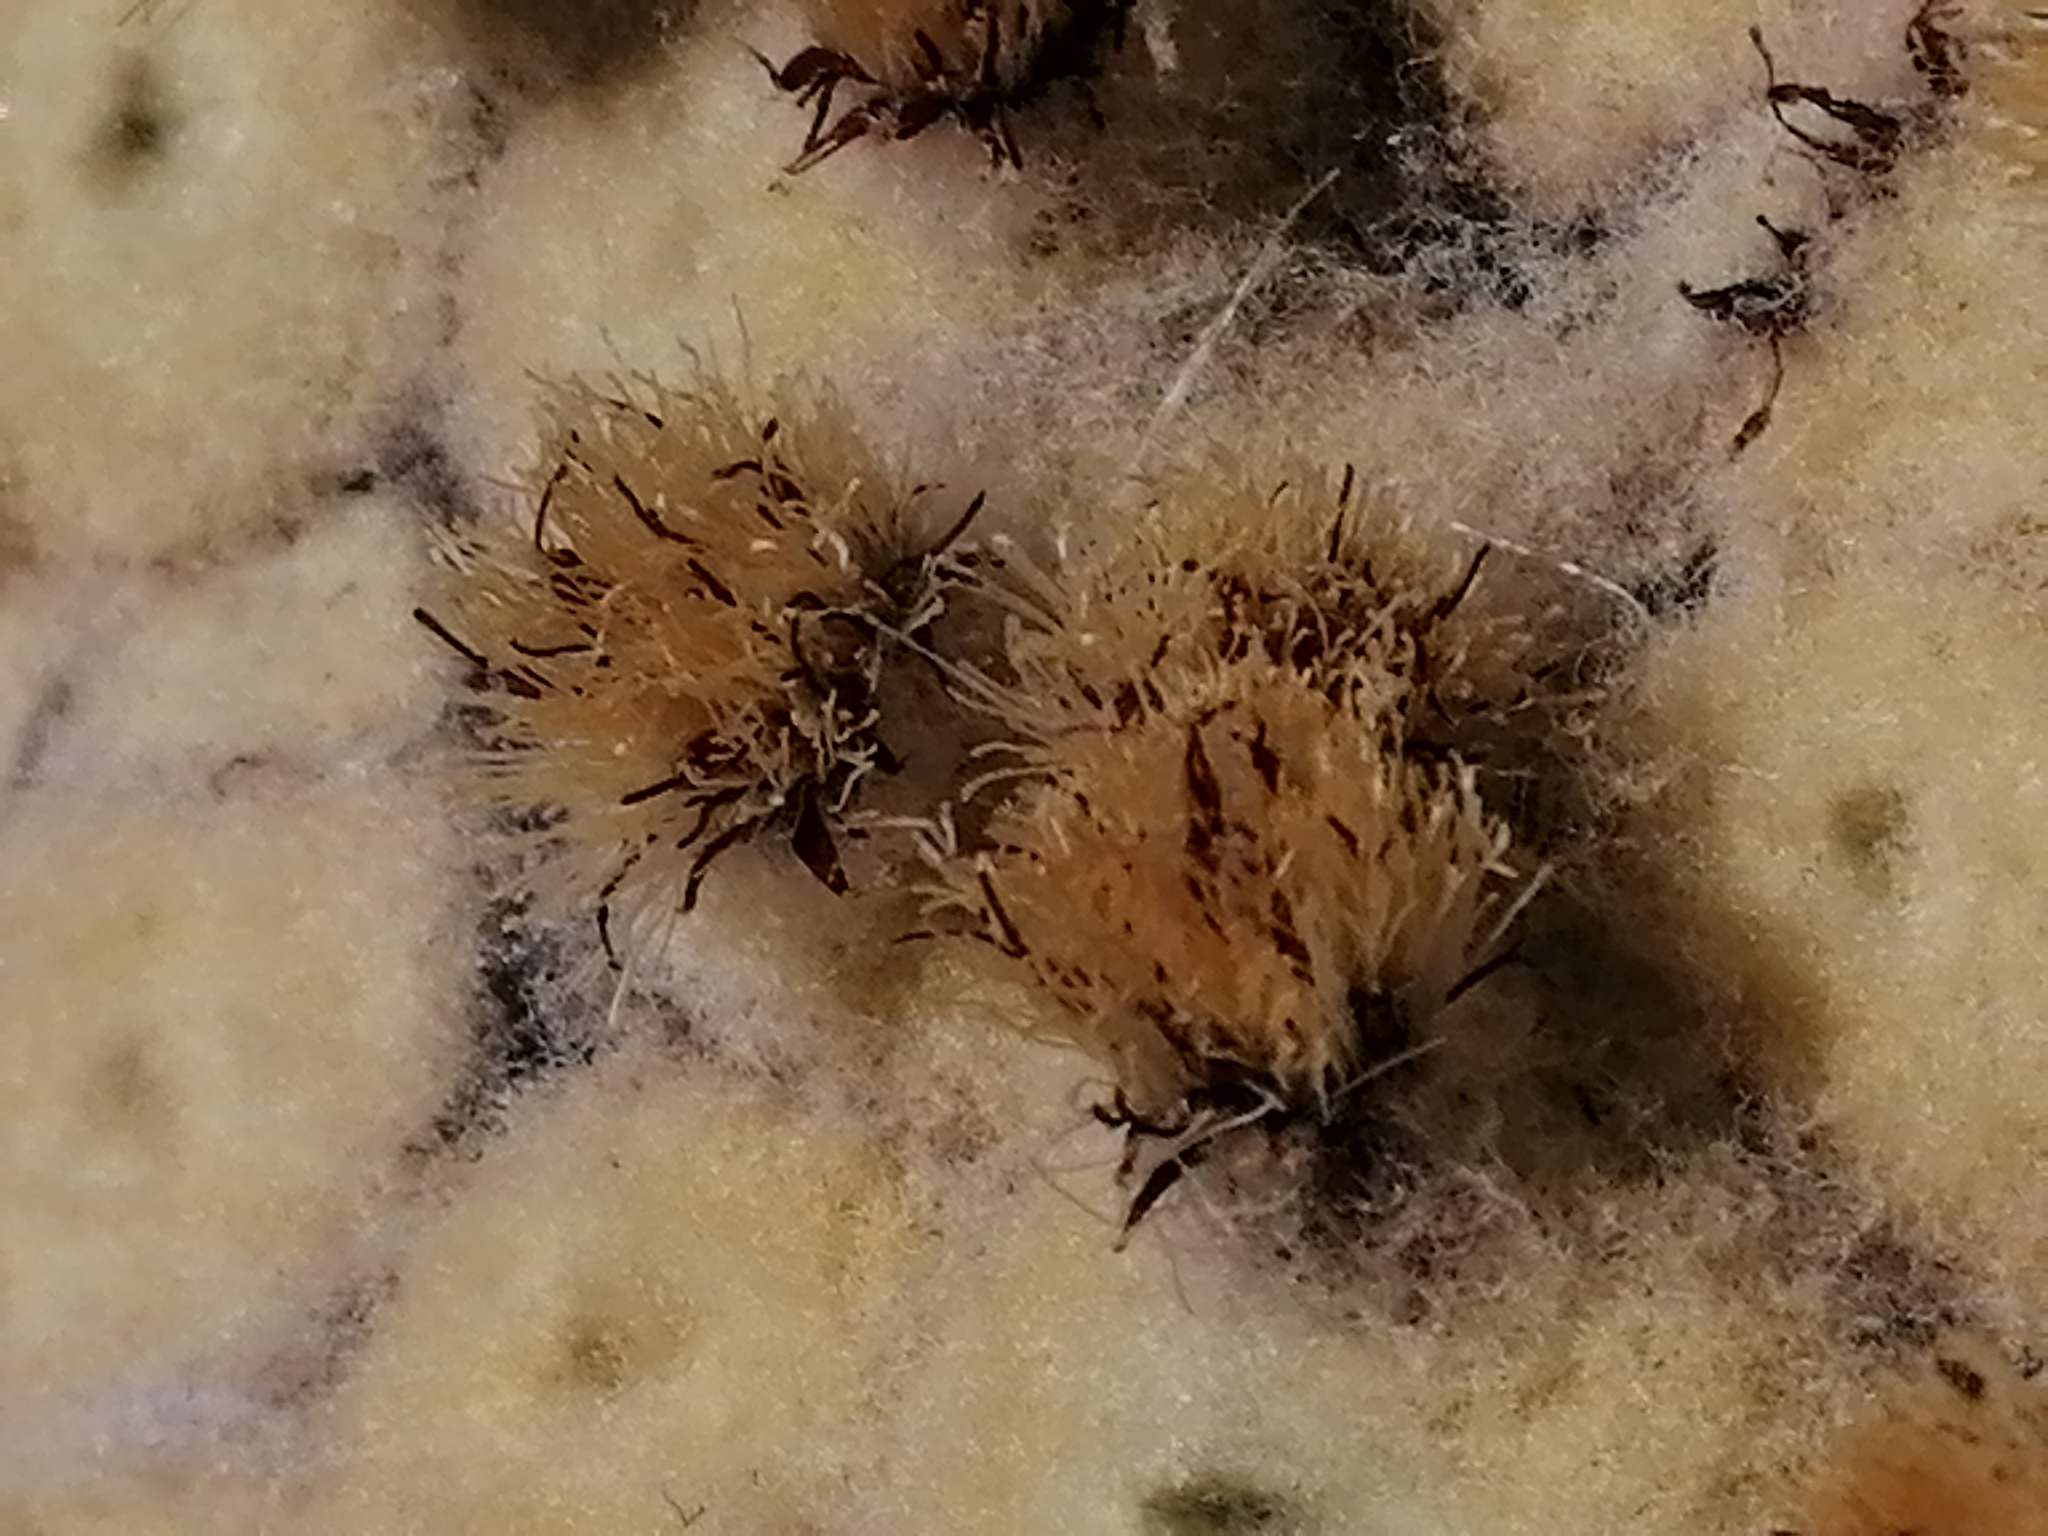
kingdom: Plantae
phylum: Tracheophyta
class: Magnoliopsida
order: Asterales
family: Asteraceae
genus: Haastia
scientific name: Haastia pulvinaris
